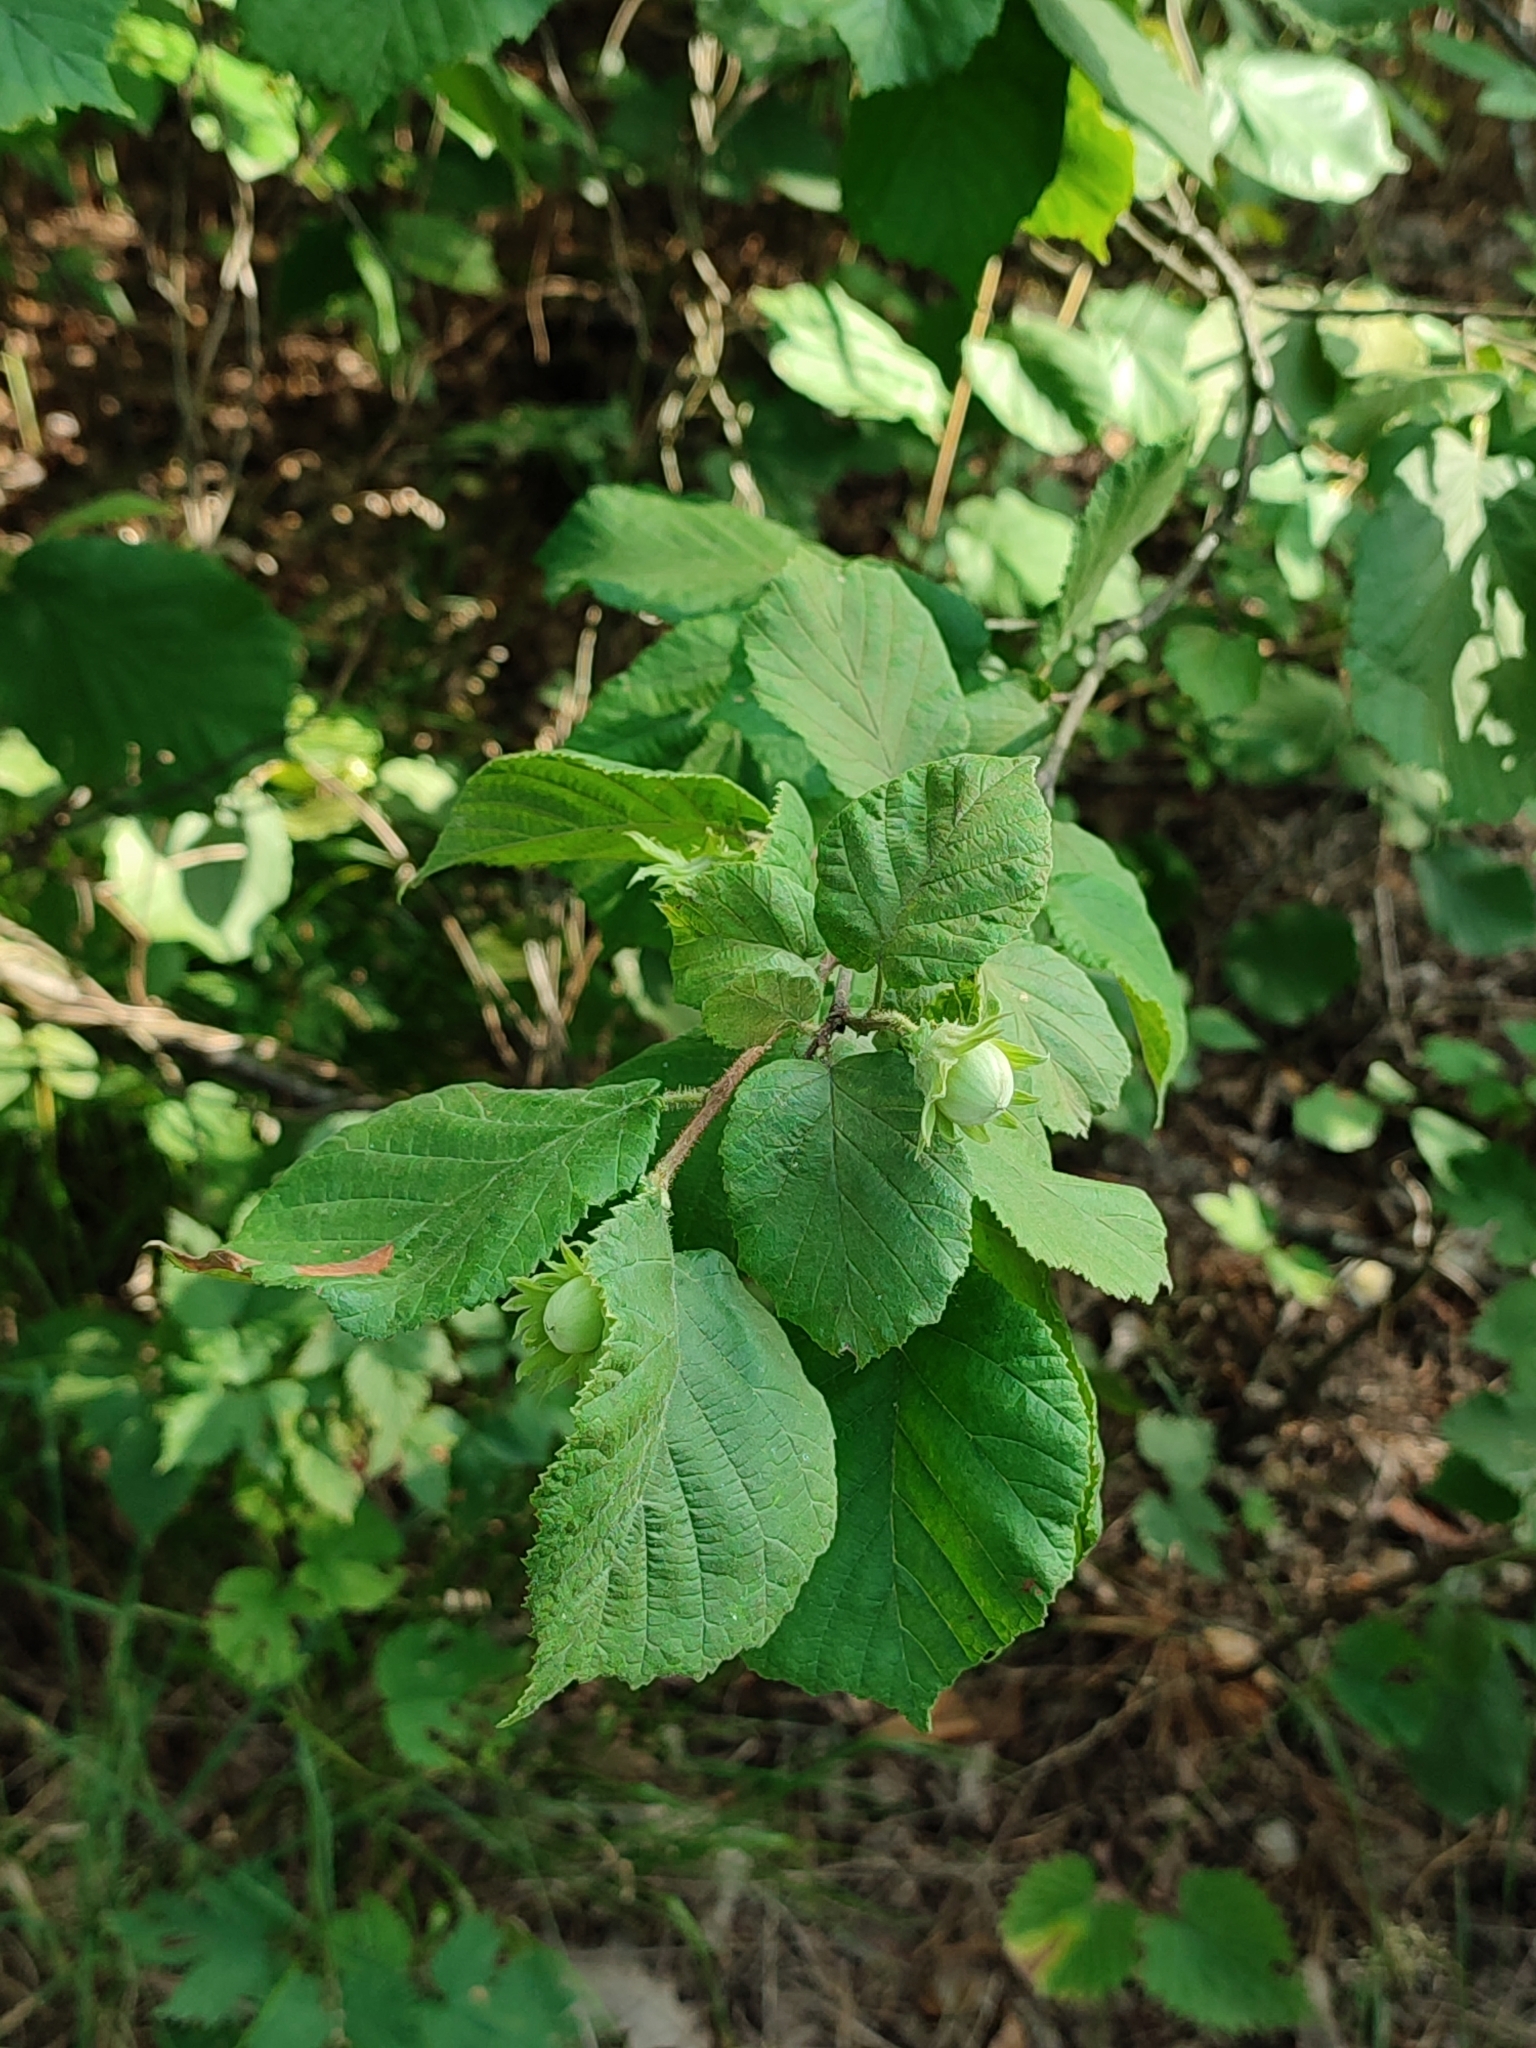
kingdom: Plantae
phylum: Tracheophyta
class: Magnoliopsida
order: Fagales
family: Betulaceae
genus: Corylus
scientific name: Corylus avellana
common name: European hazel
